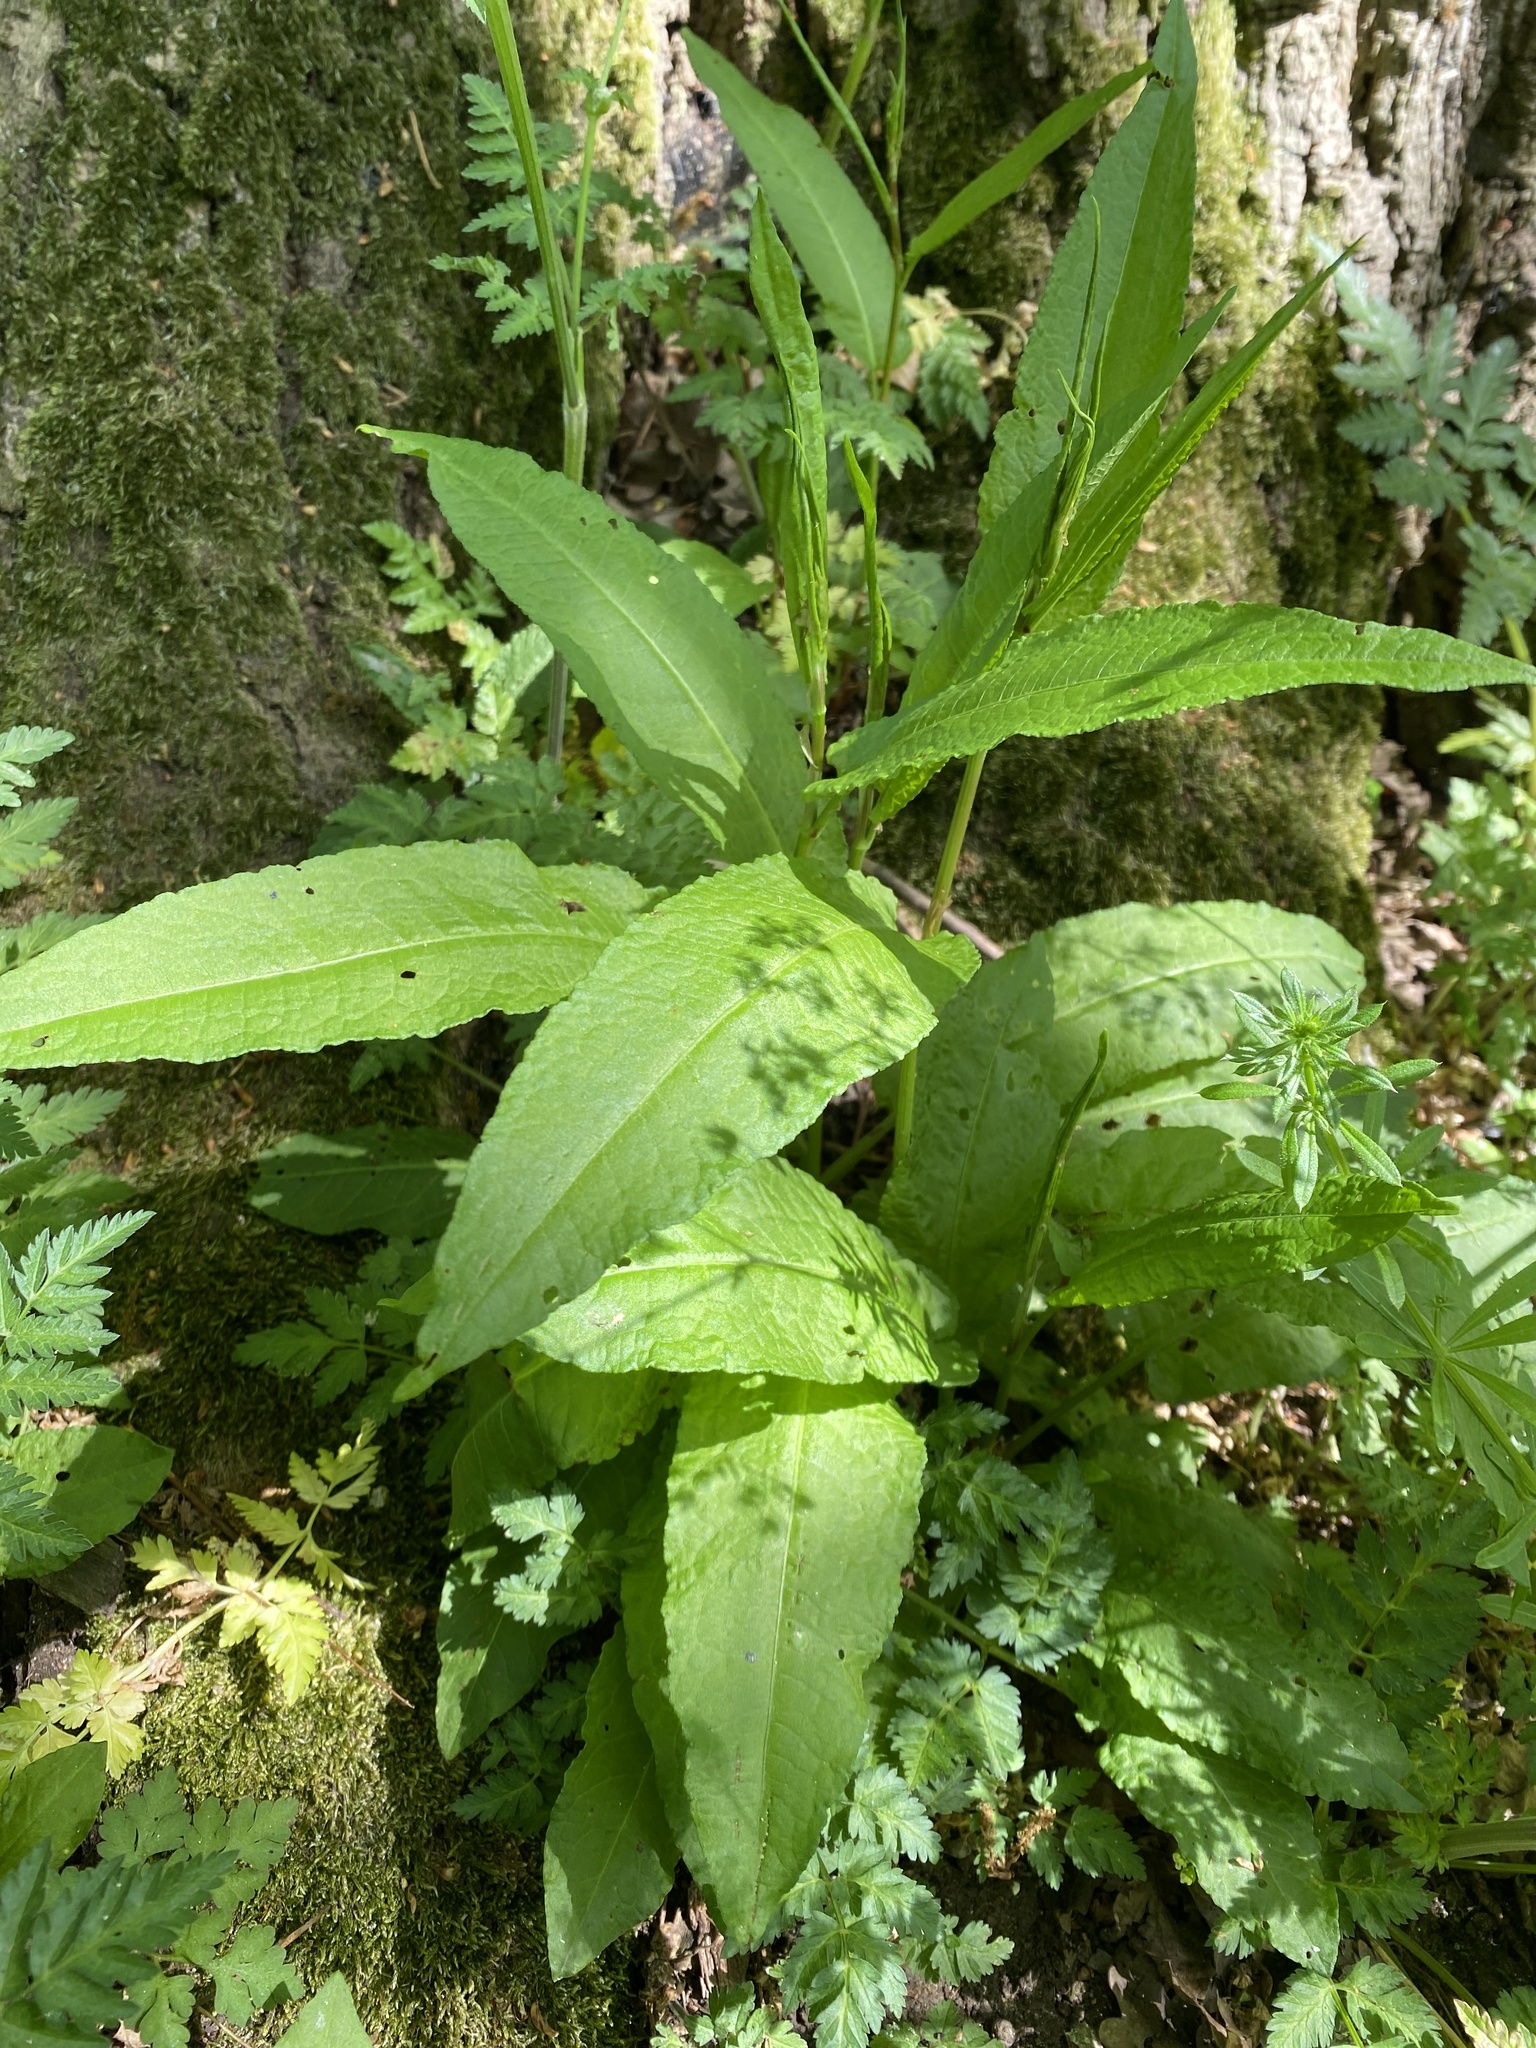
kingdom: Plantae
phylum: Tracheophyta
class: Magnoliopsida
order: Caryophyllales
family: Polygonaceae
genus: Rumex
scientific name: Rumex sanguineus
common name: Wood dock
